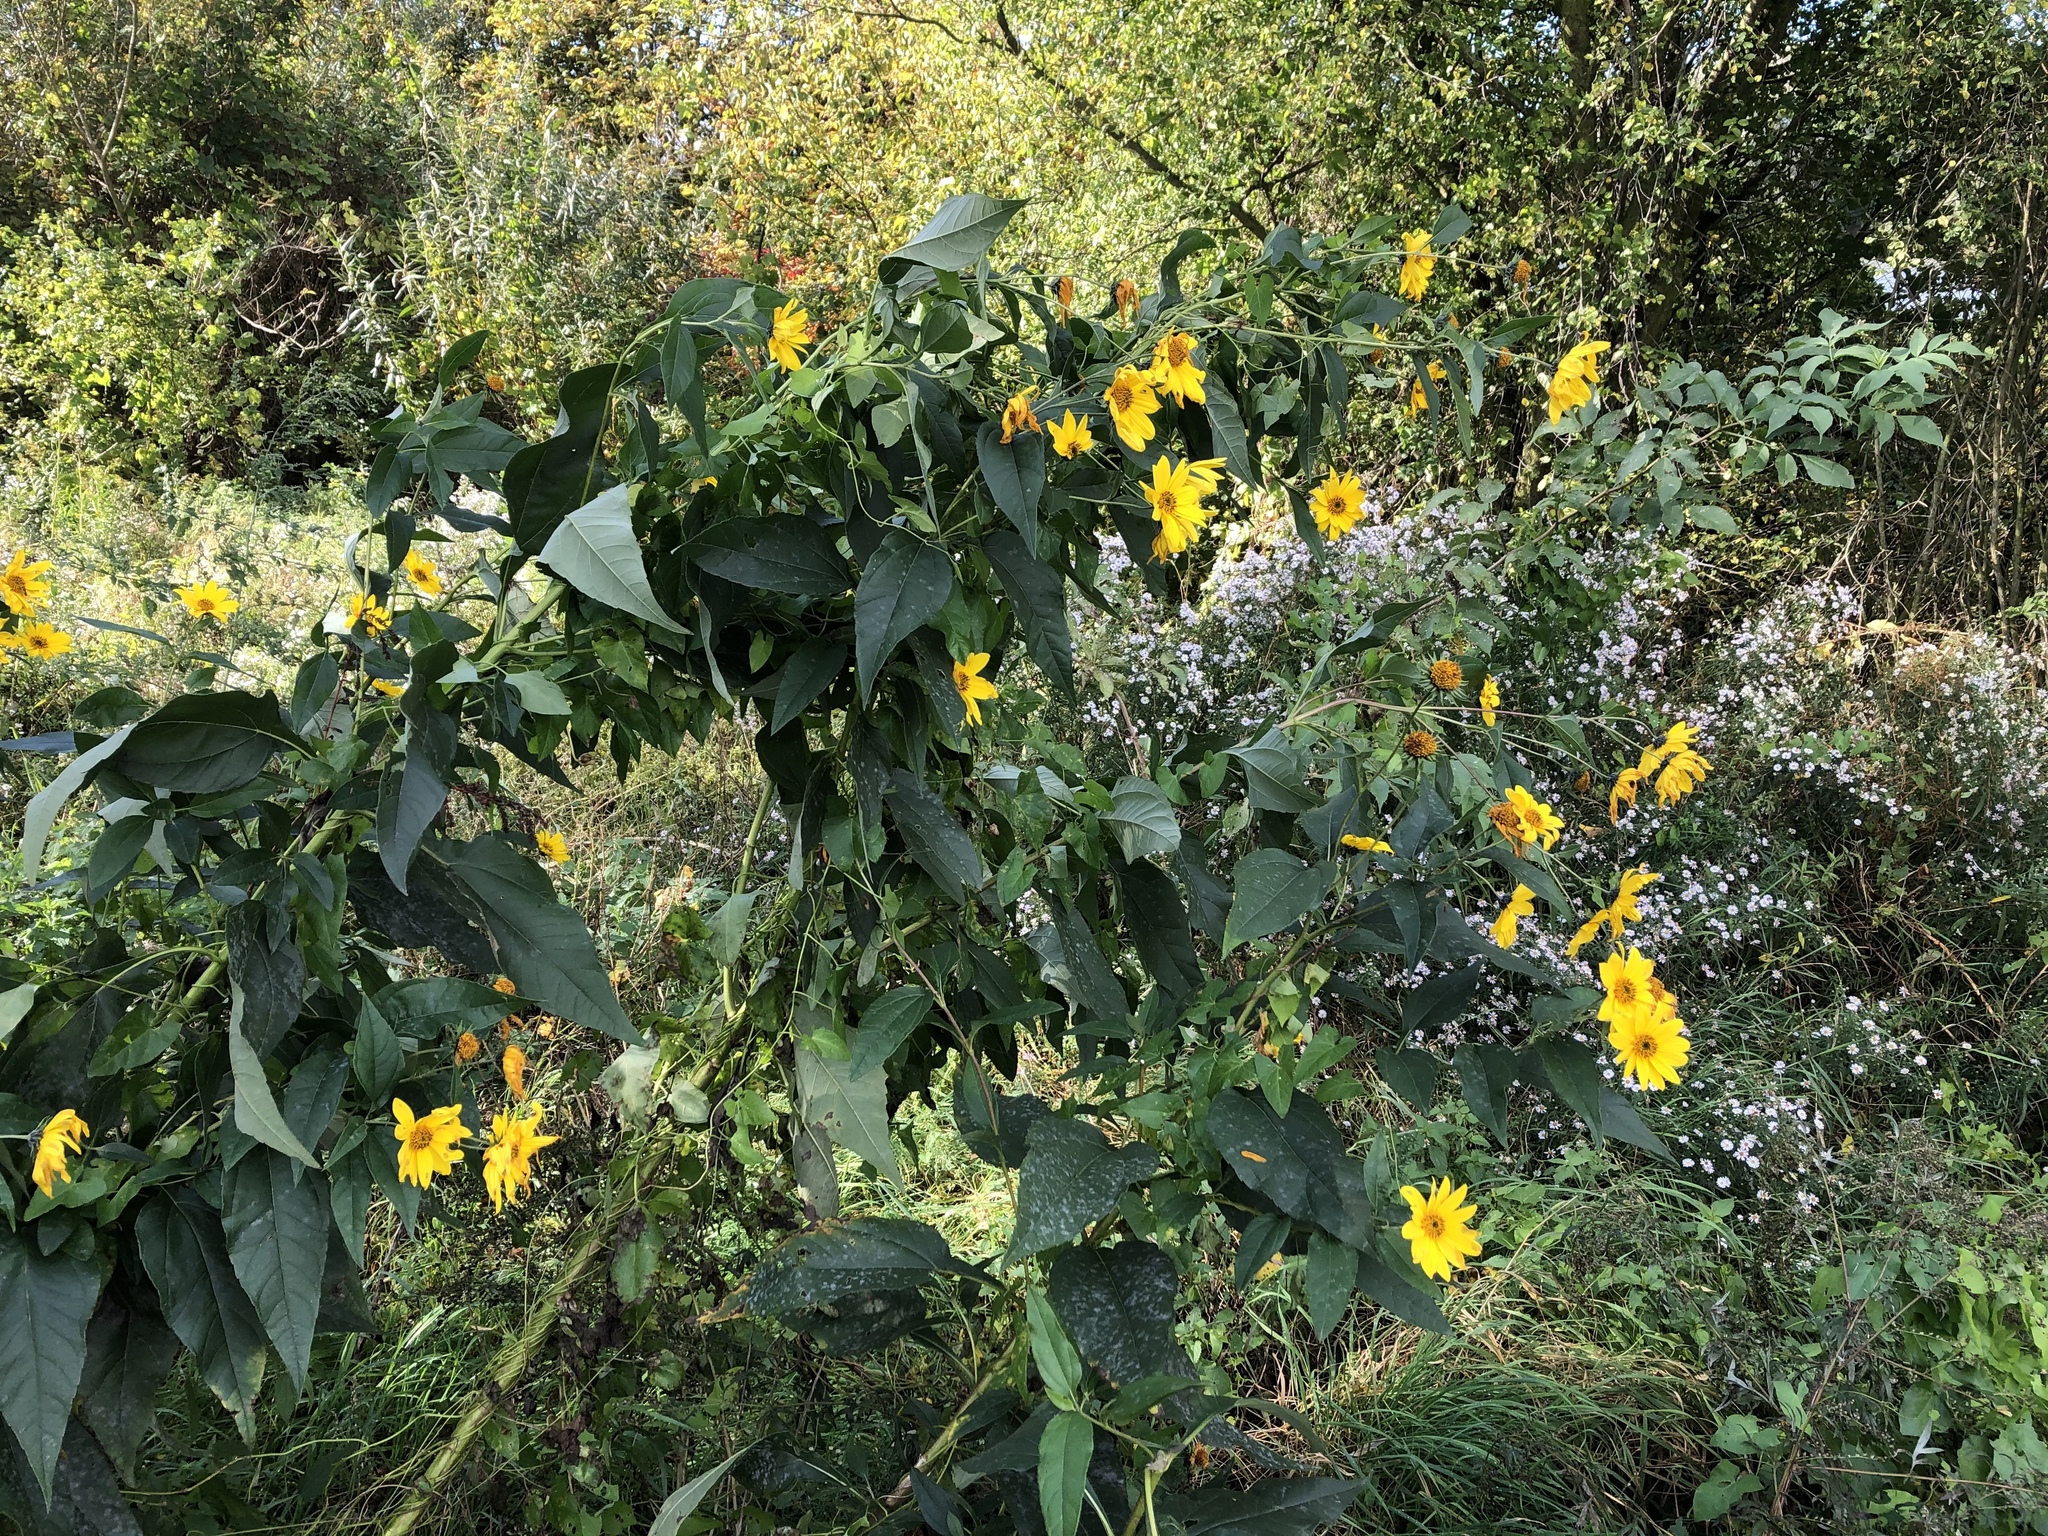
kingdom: Plantae
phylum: Tracheophyta
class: Magnoliopsida
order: Asterales
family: Asteraceae
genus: Helianthus
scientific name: Helianthus tuberosus
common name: Jerusalem artichoke
